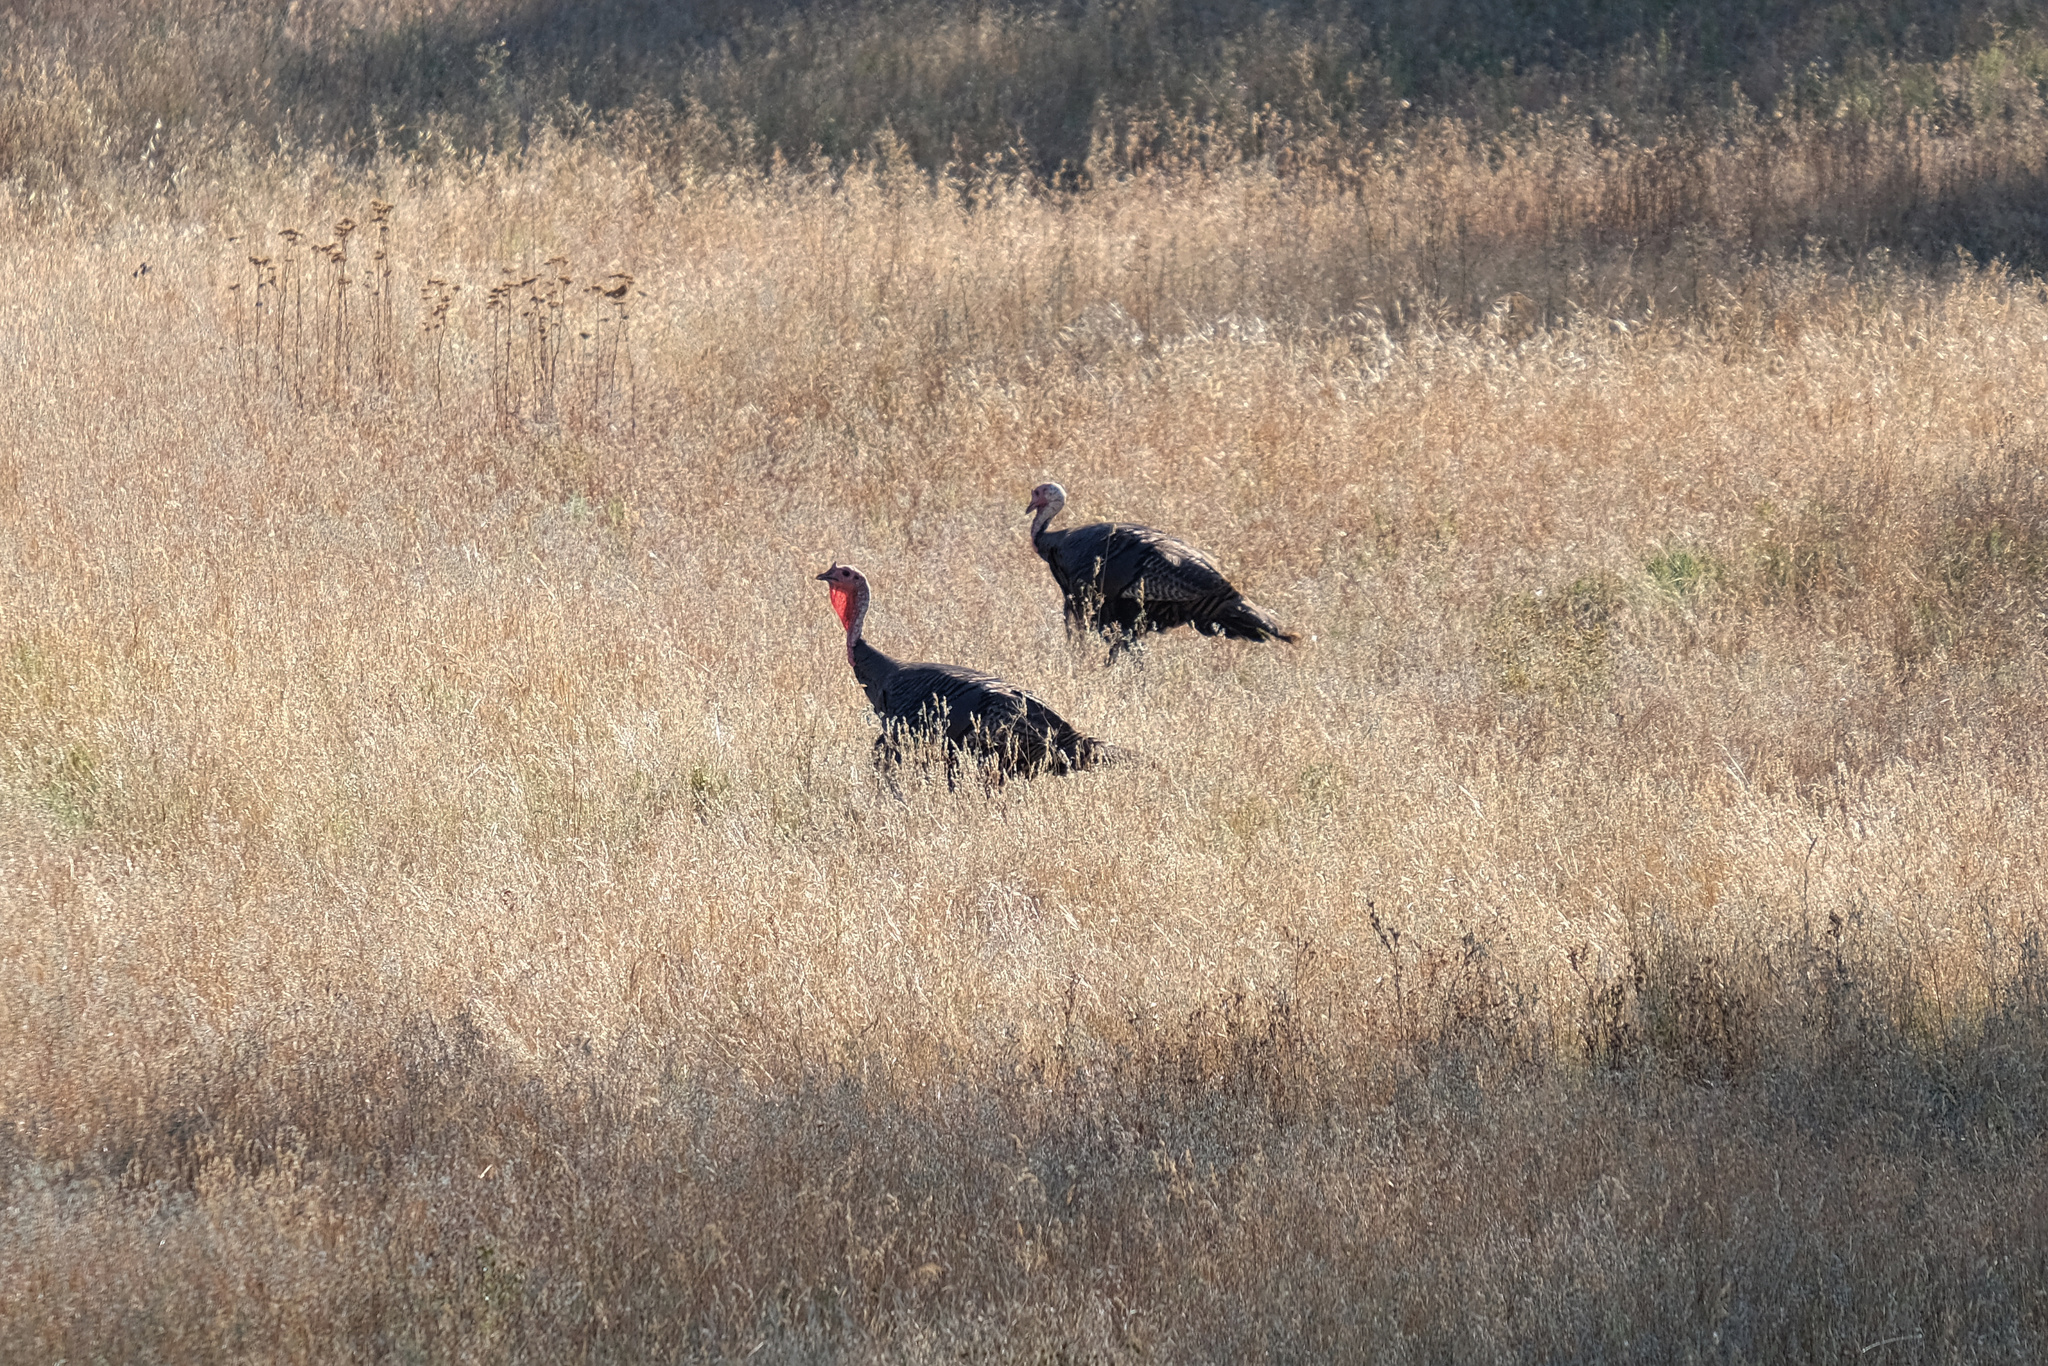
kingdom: Animalia
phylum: Chordata
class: Aves
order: Galliformes
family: Phasianidae
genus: Meleagris
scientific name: Meleagris gallopavo
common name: Wild turkey
